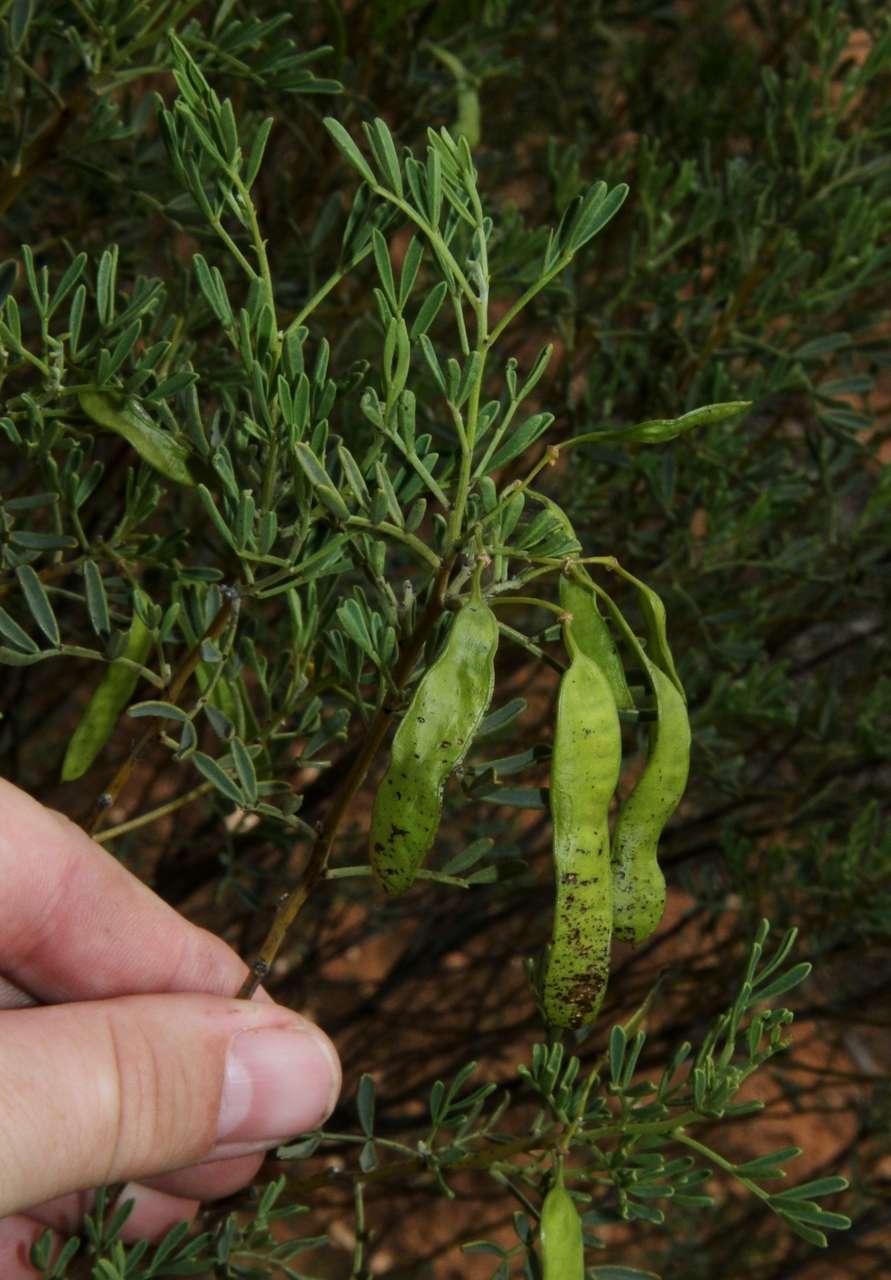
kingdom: Plantae
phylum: Tracheophyta
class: Magnoliopsida
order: Fabales
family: Fabaceae
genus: Senna
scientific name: Senna artemisioides
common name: Burnt-leaved acacia
